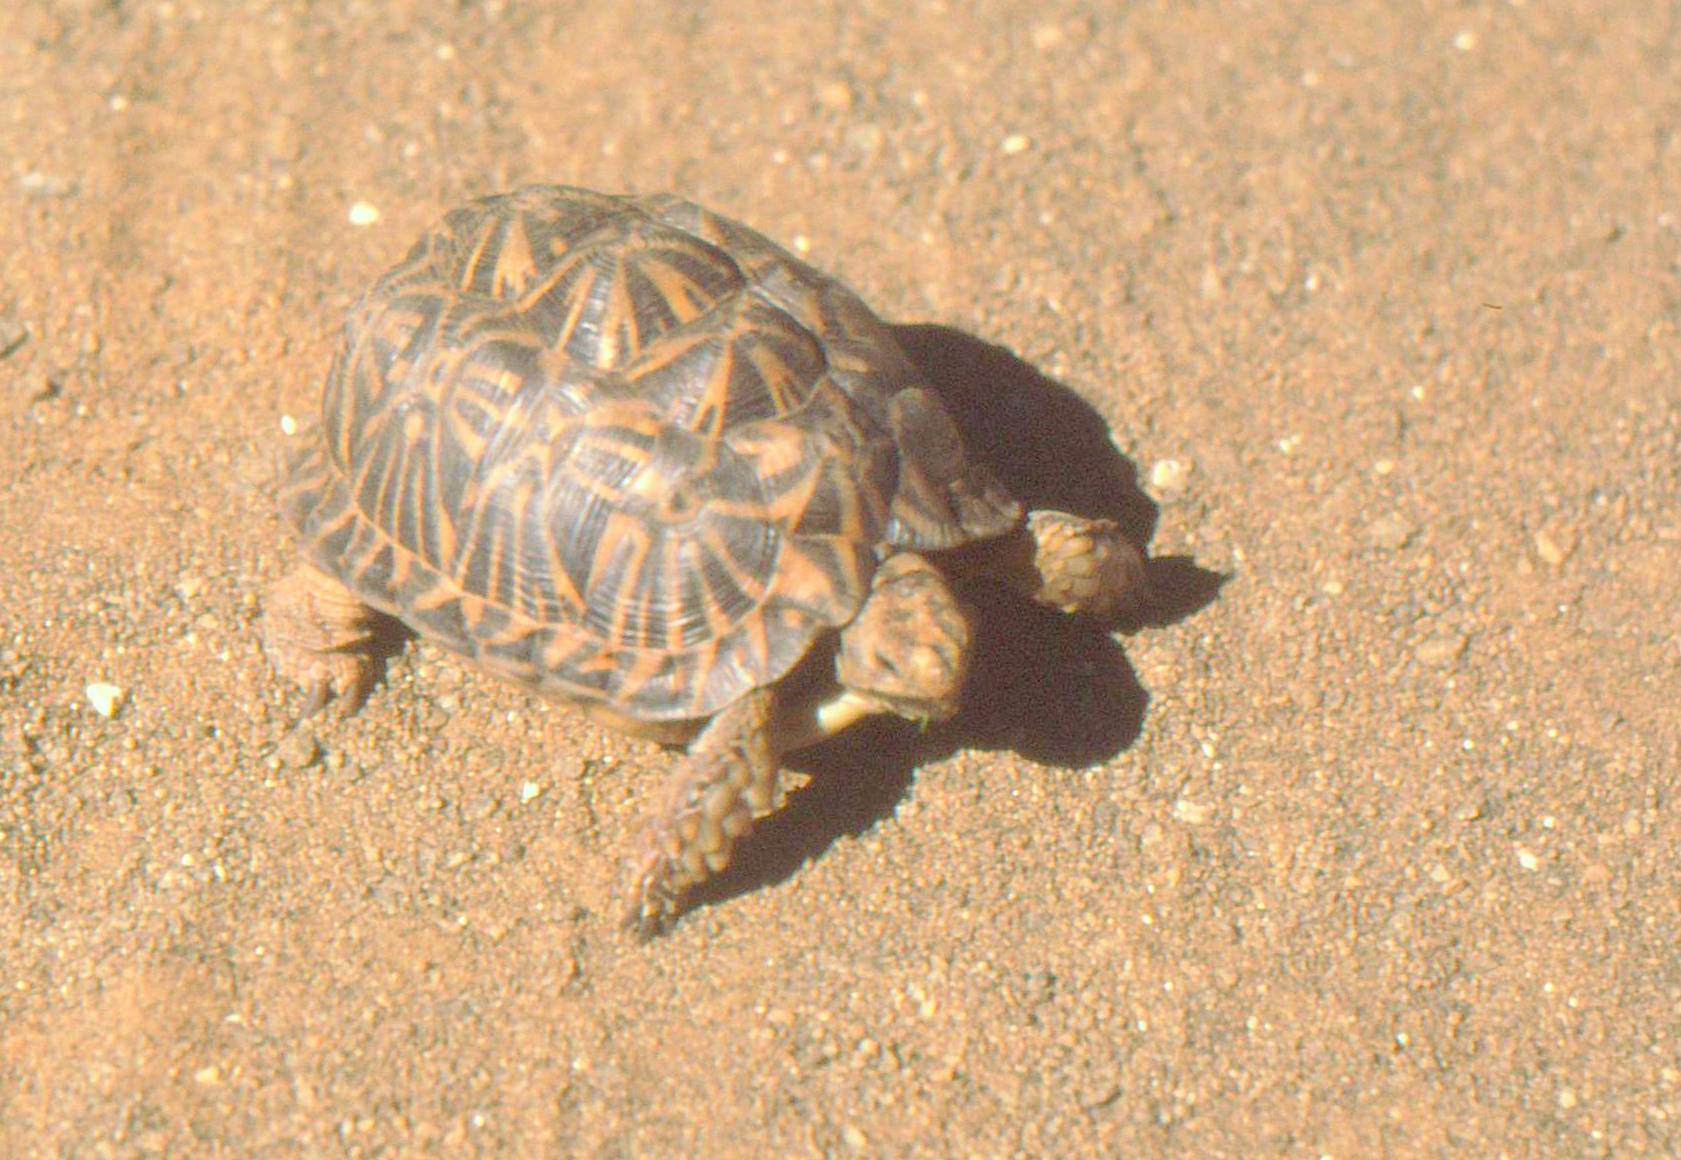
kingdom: Animalia
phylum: Chordata
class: Testudines
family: Testudinidae
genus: Psammobates
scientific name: Psammobates tentorius
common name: Tent tortoise
